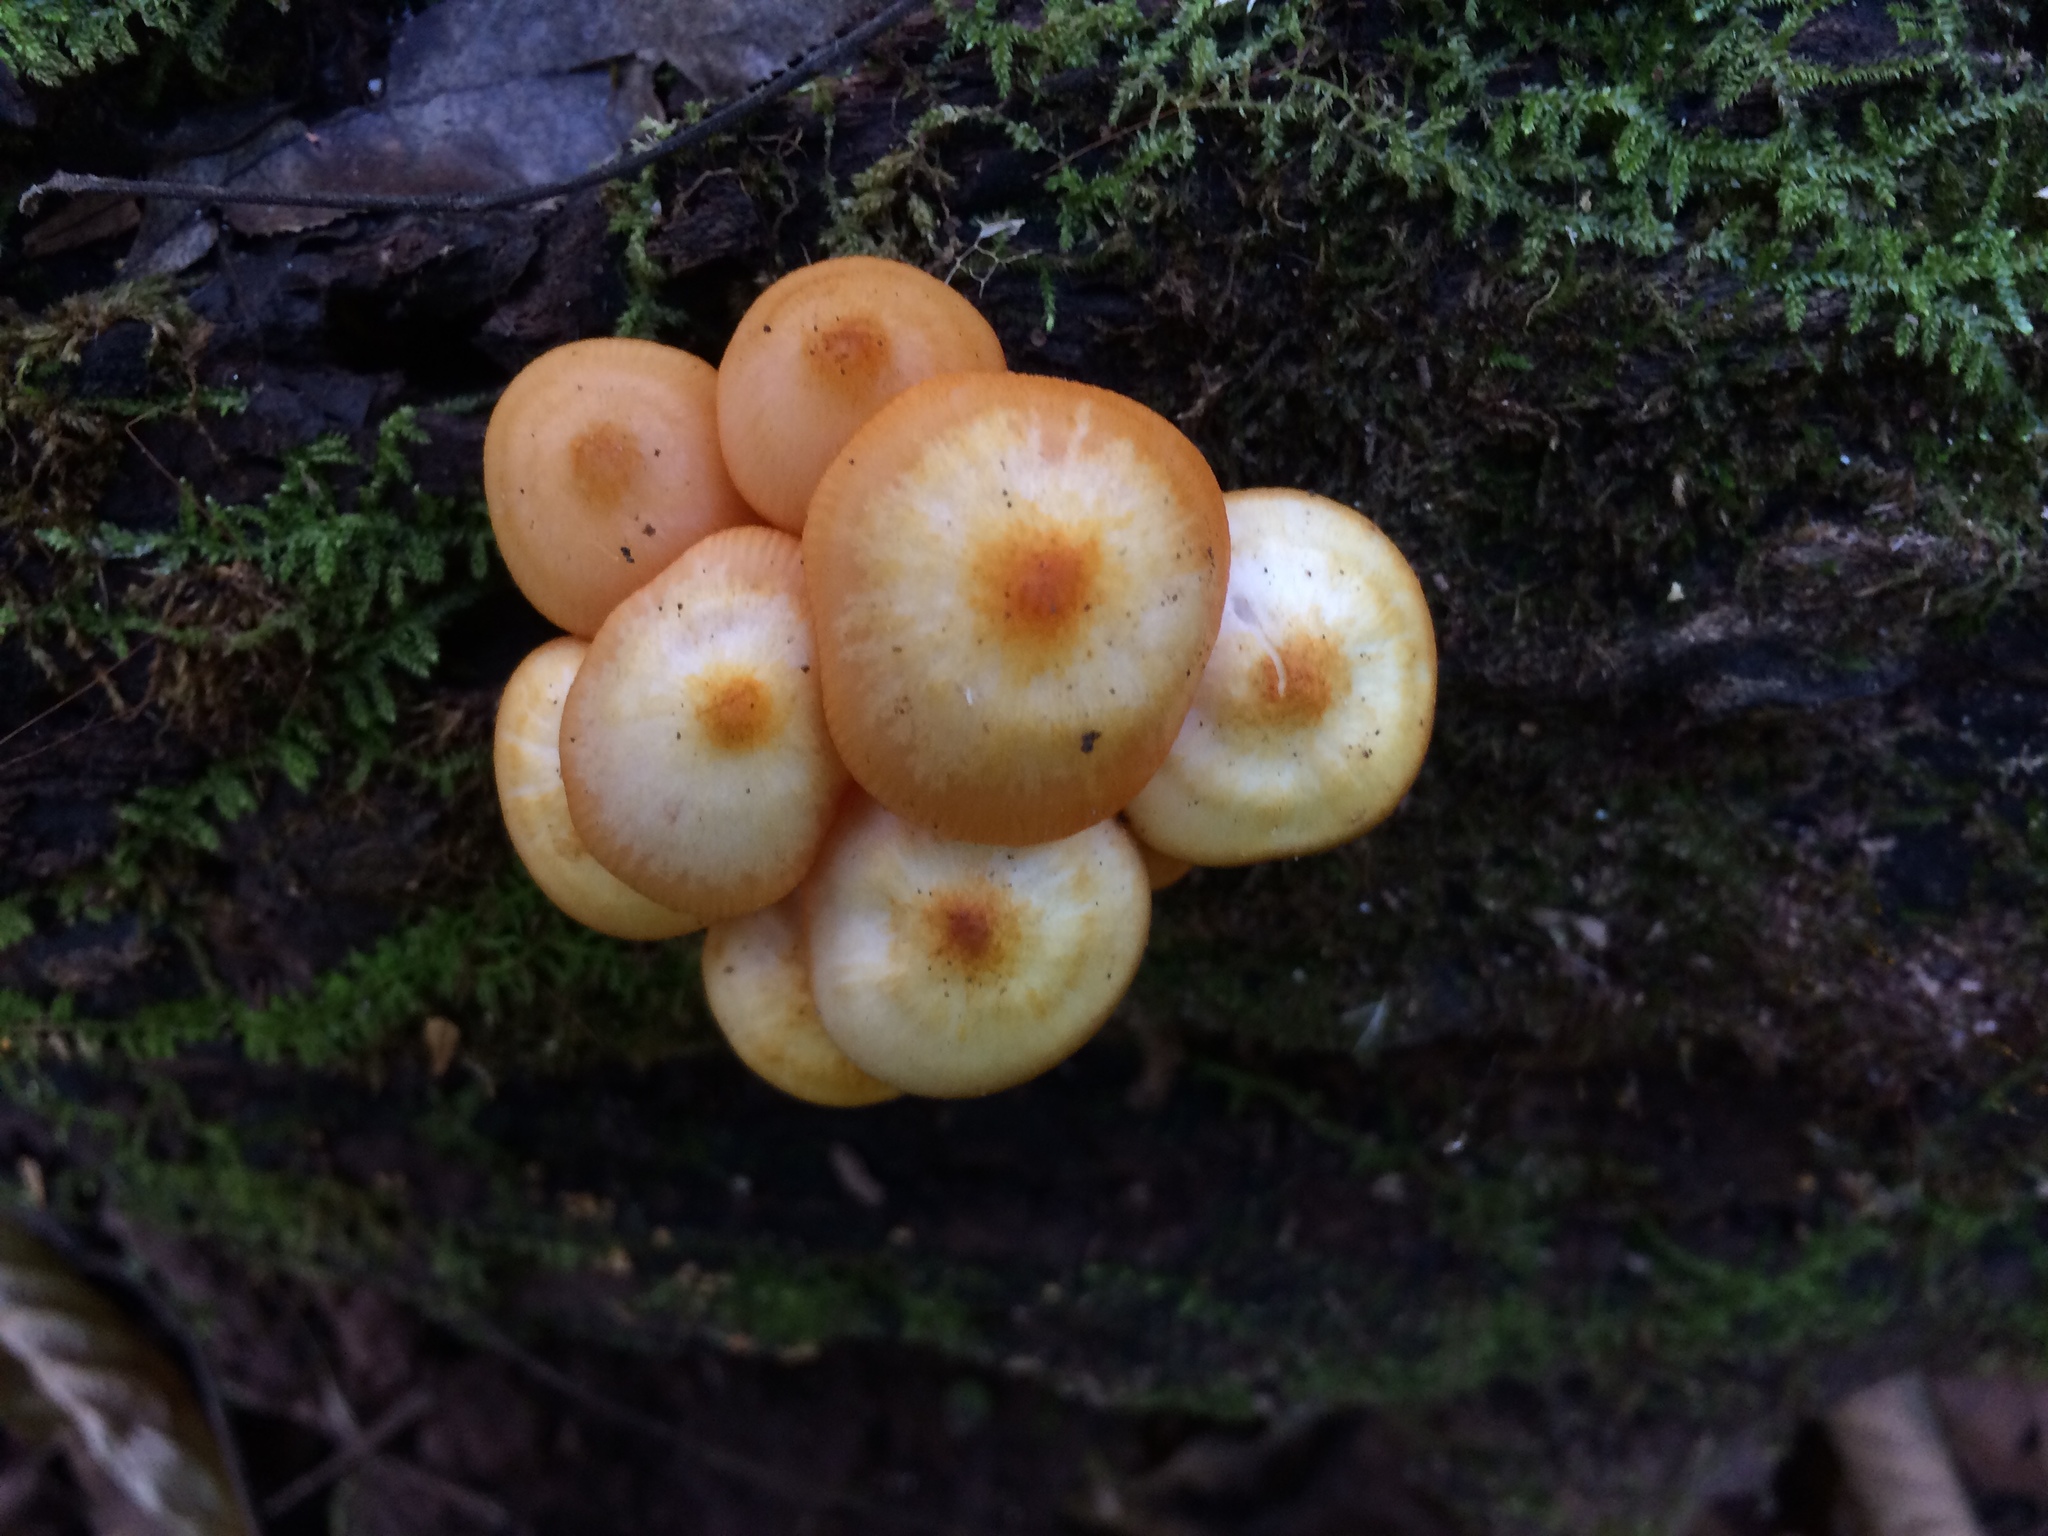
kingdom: Fungi
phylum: Basidiomycota
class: Agaricomycetes
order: Agaricales
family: Mycenaceae
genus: Mycena
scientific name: Mycena leaiana
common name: Orange mycena
